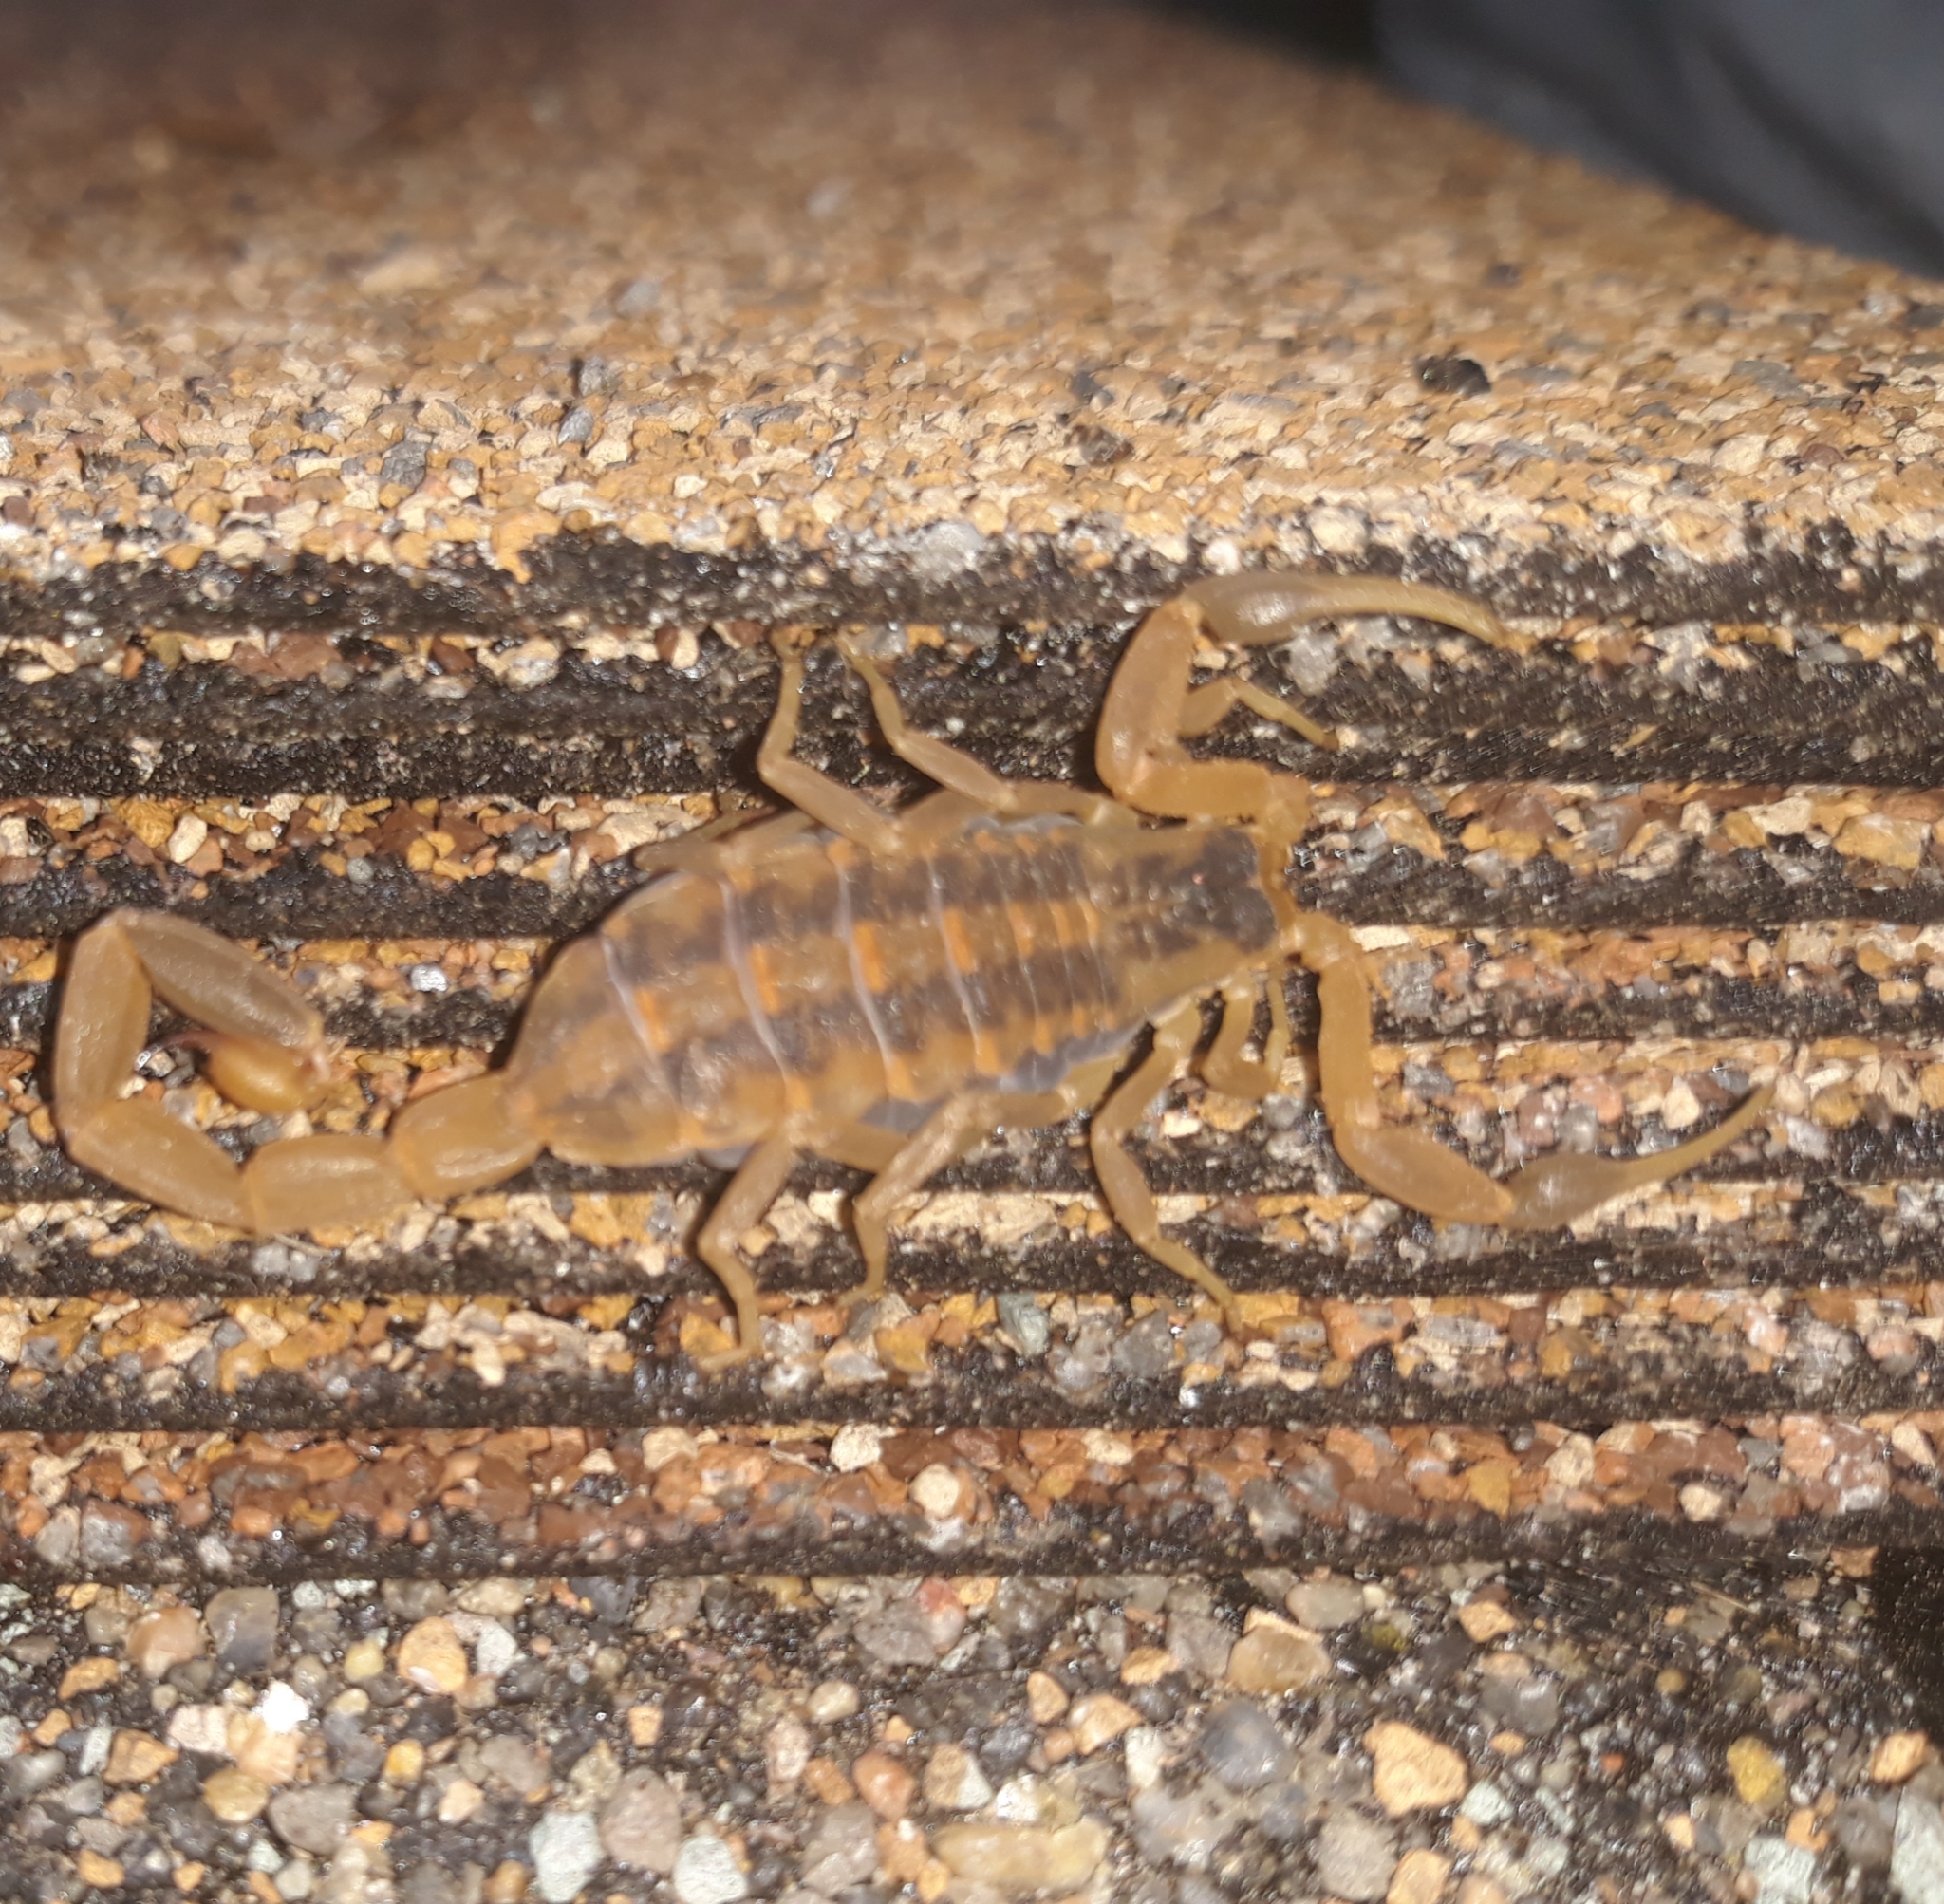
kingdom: Animalia
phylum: Arthropoda
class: Arachnida
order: Scorpiones
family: Buthidae
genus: Centruroides
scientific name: Centruroides vittatus
